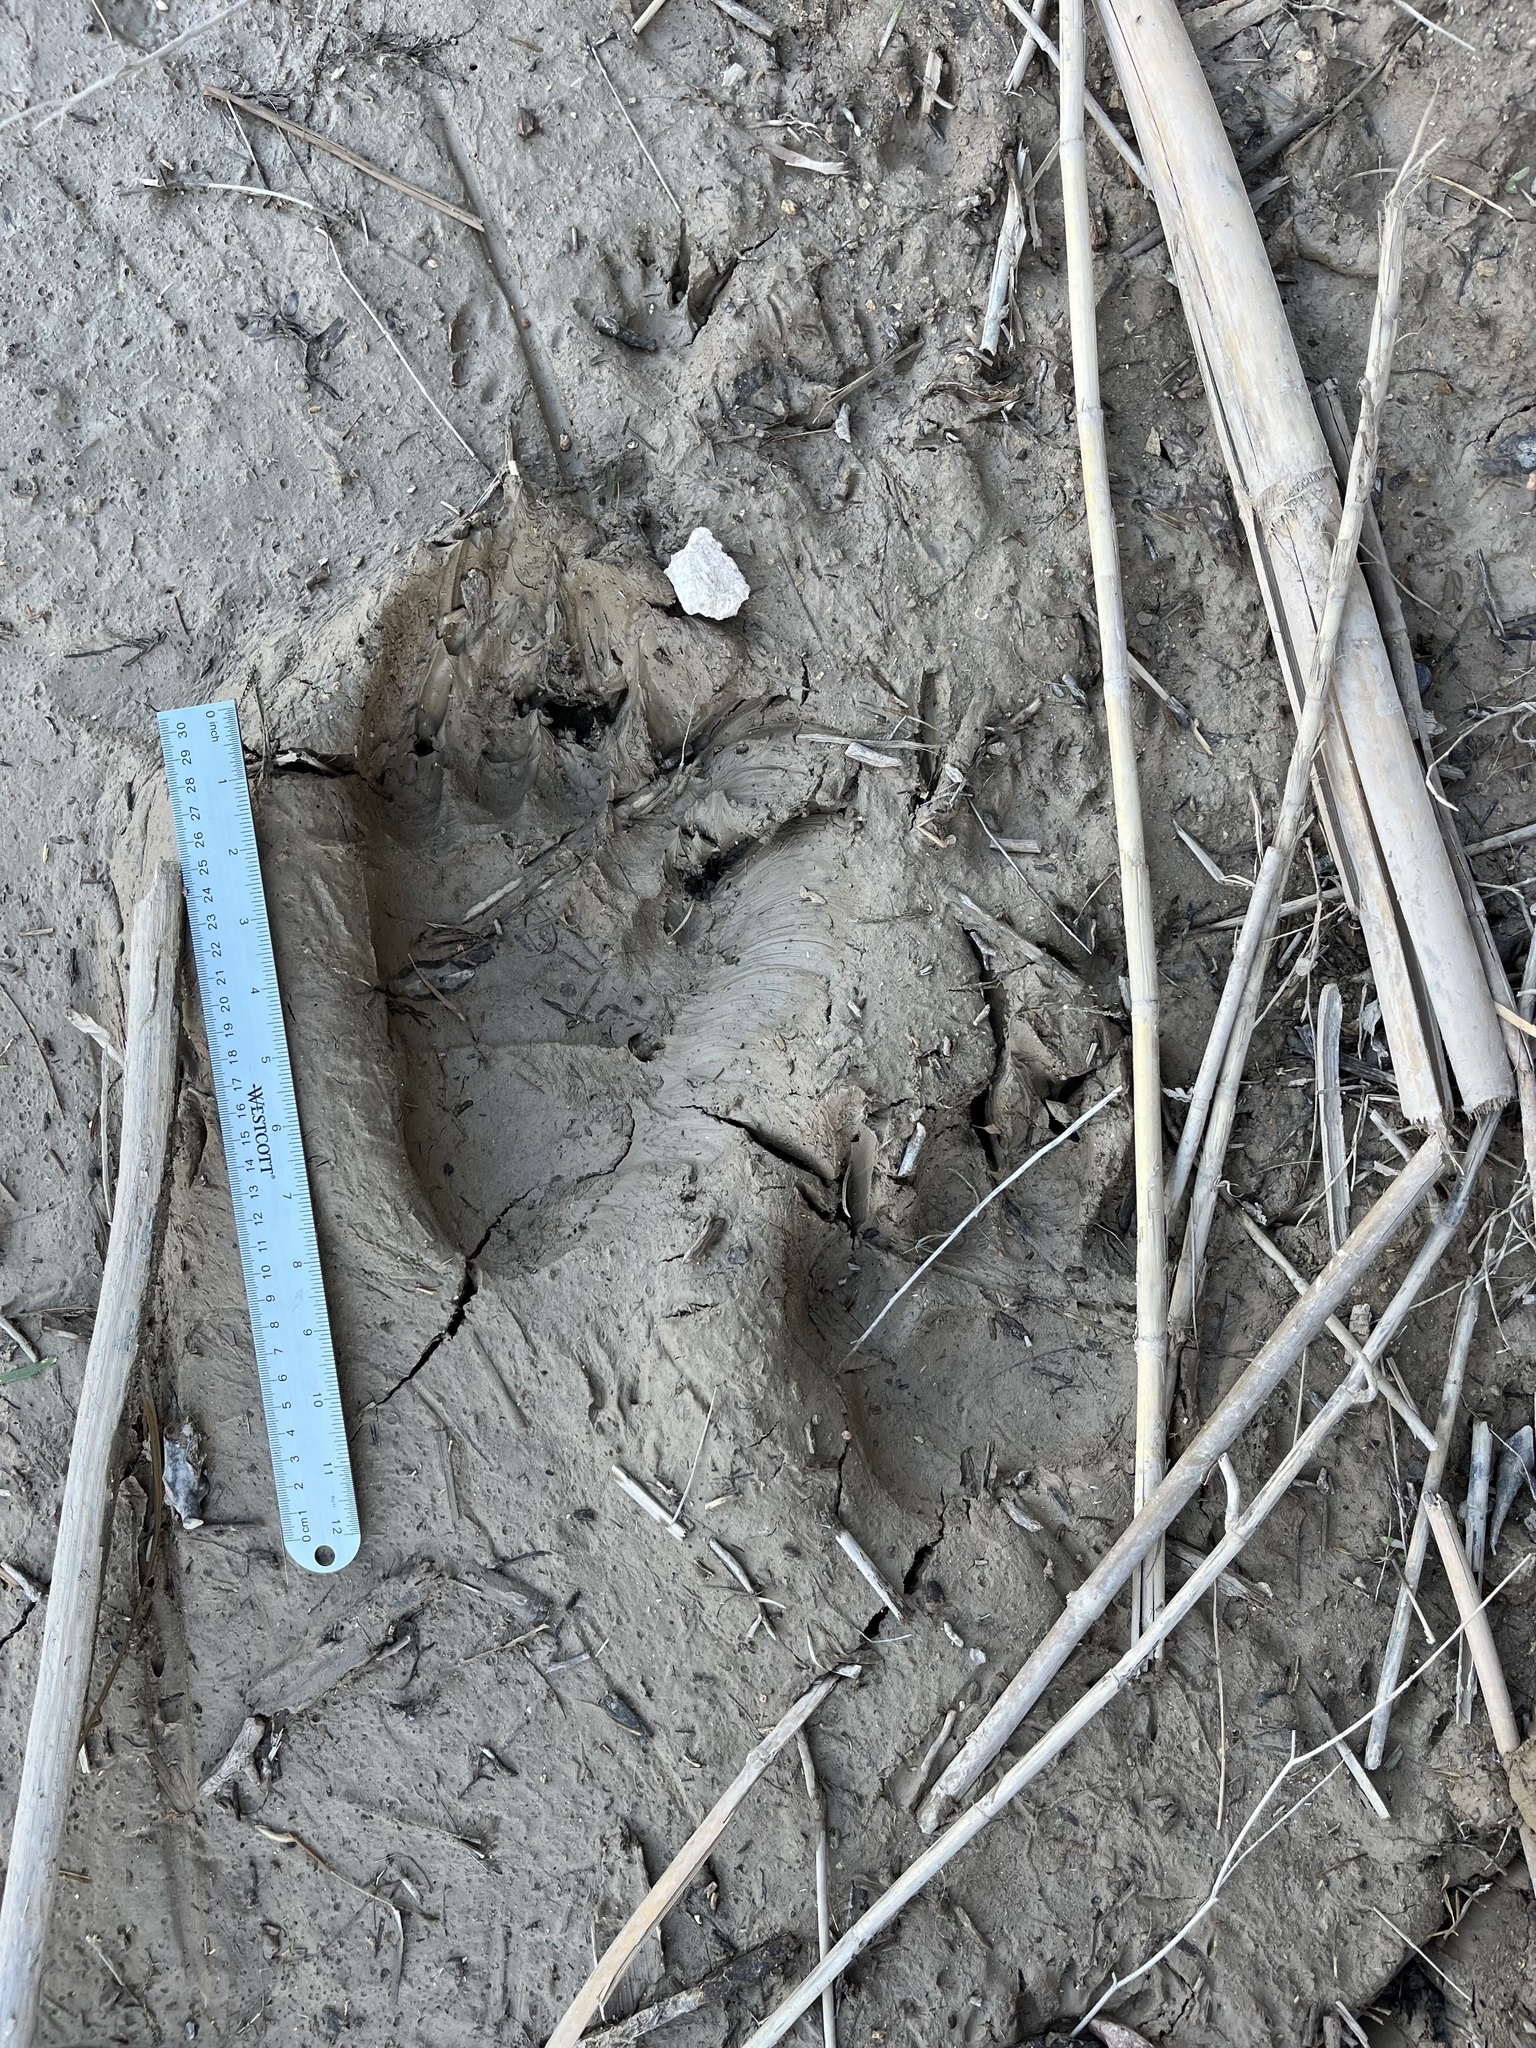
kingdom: Animalia
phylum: Chordata
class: Mammalia
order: Carnivora
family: Ursidae
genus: Ursus
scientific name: Ursus americanus
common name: American black bear
